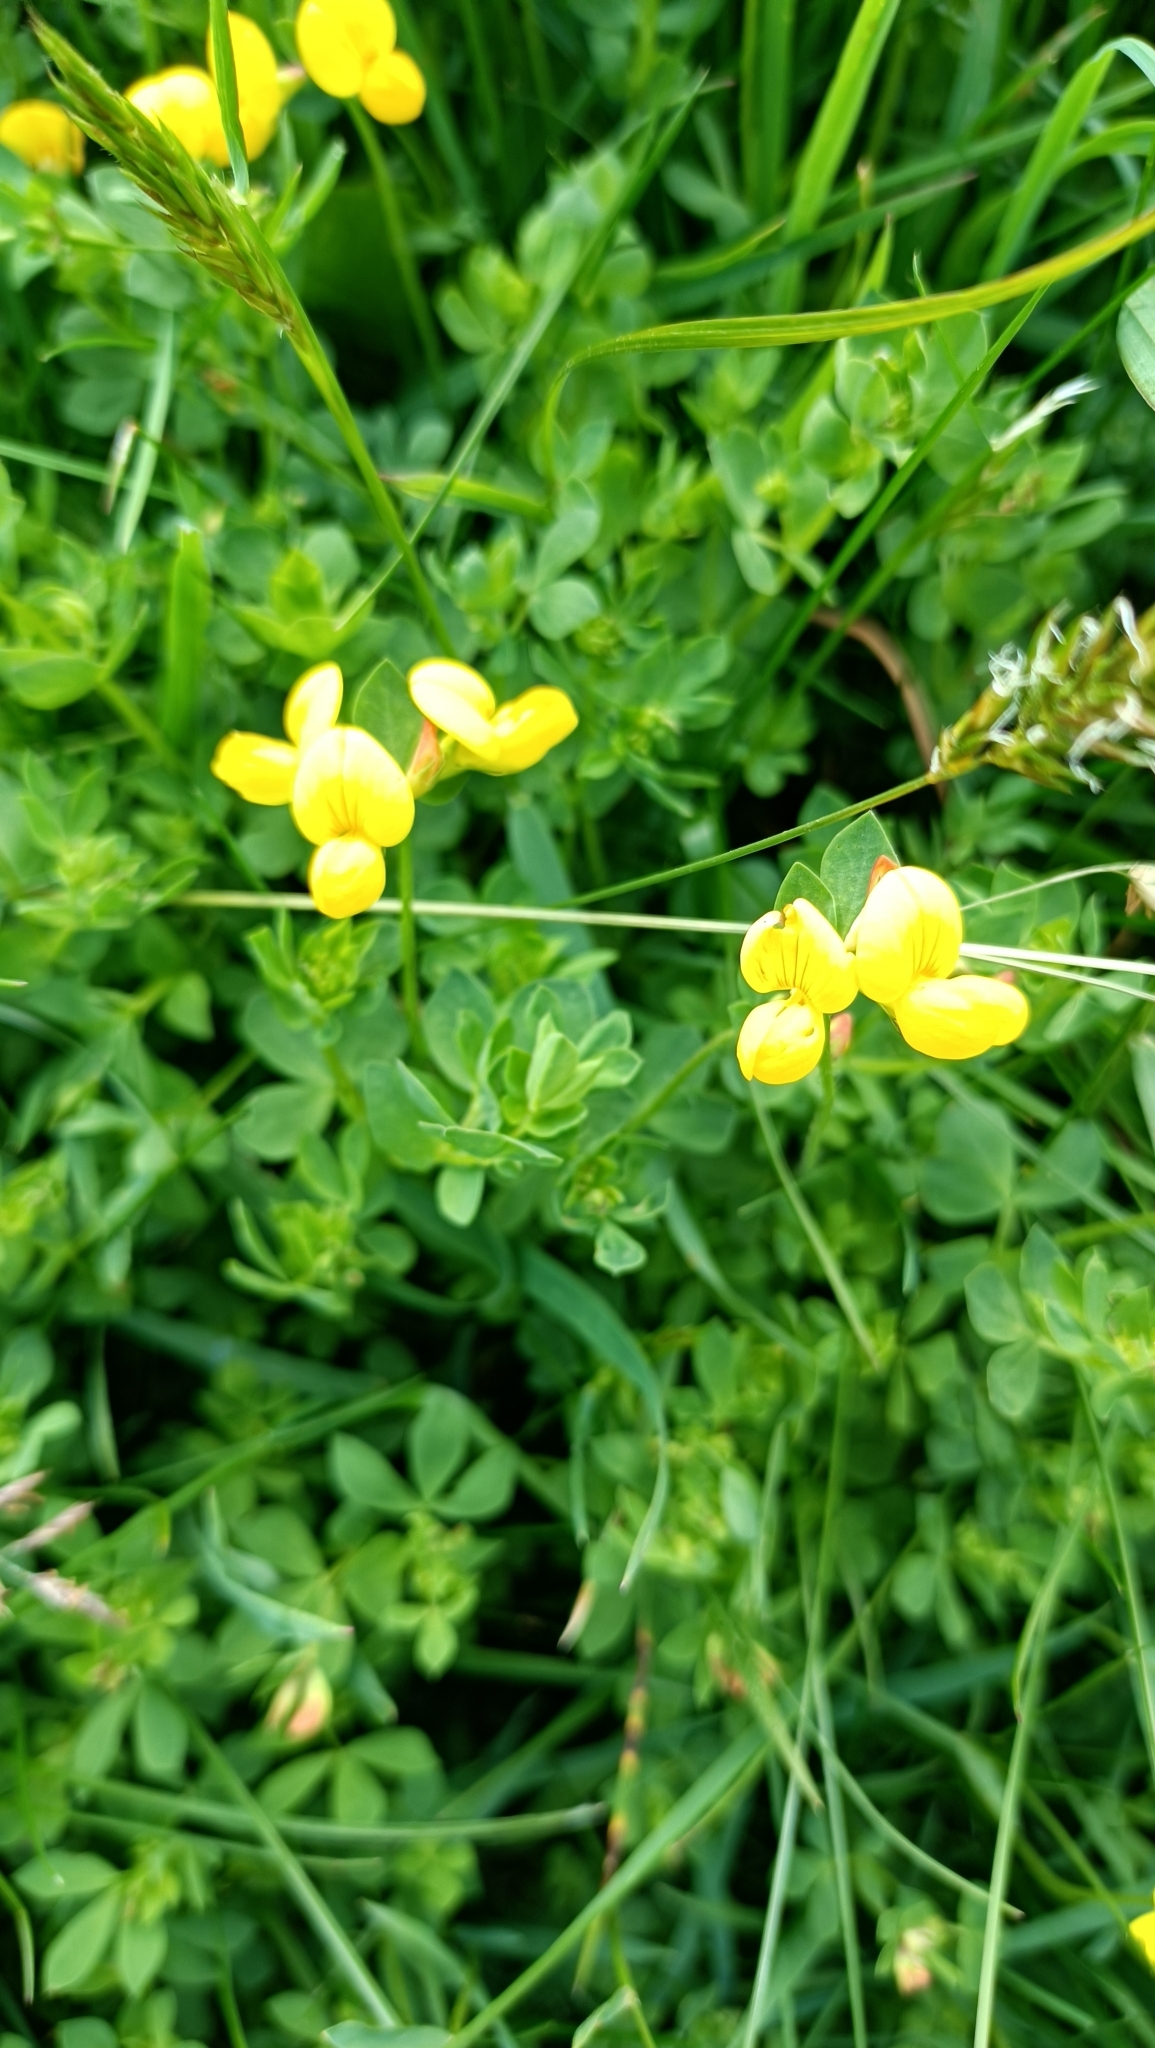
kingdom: Plantae
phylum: Tracheophyta
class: Magnoliopsida
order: Fabales
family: Fabaceae
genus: Lotus
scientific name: Lotus corniculatus
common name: Common bird's-foot-trefoil
